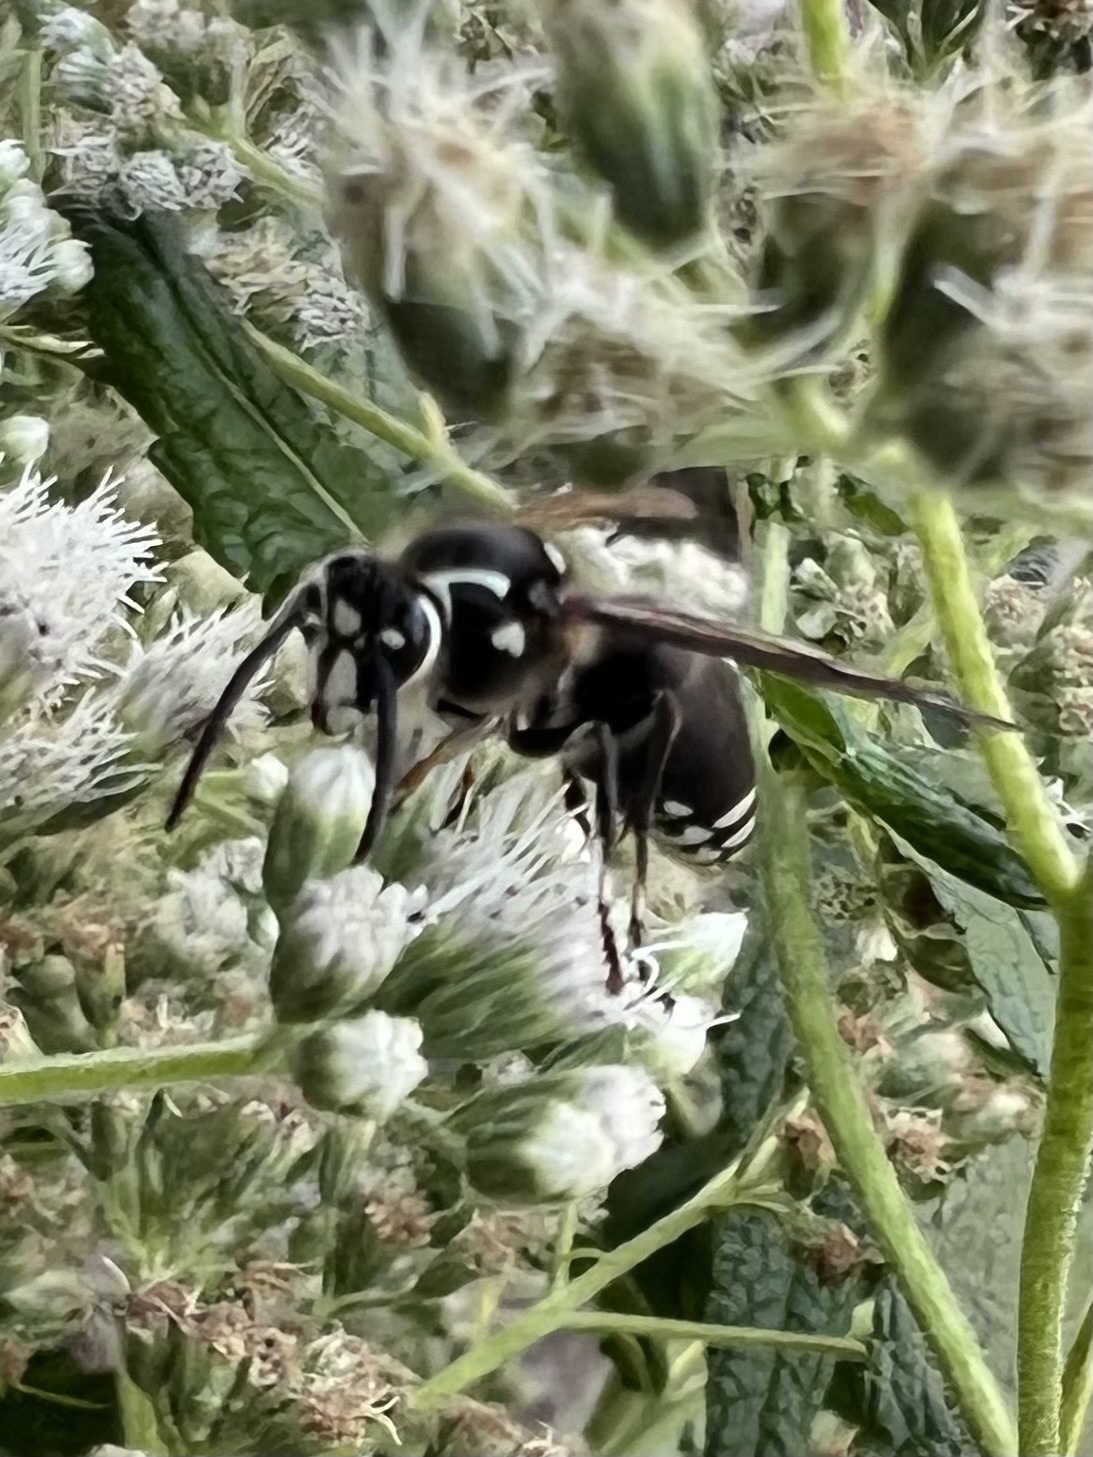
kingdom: Animalia
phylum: Arthropoda
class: Insecta
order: Hymenoptera
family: Vespidae
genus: Dolichovespula
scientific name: Dolichovespula maculata
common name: Bald-faced hornet
